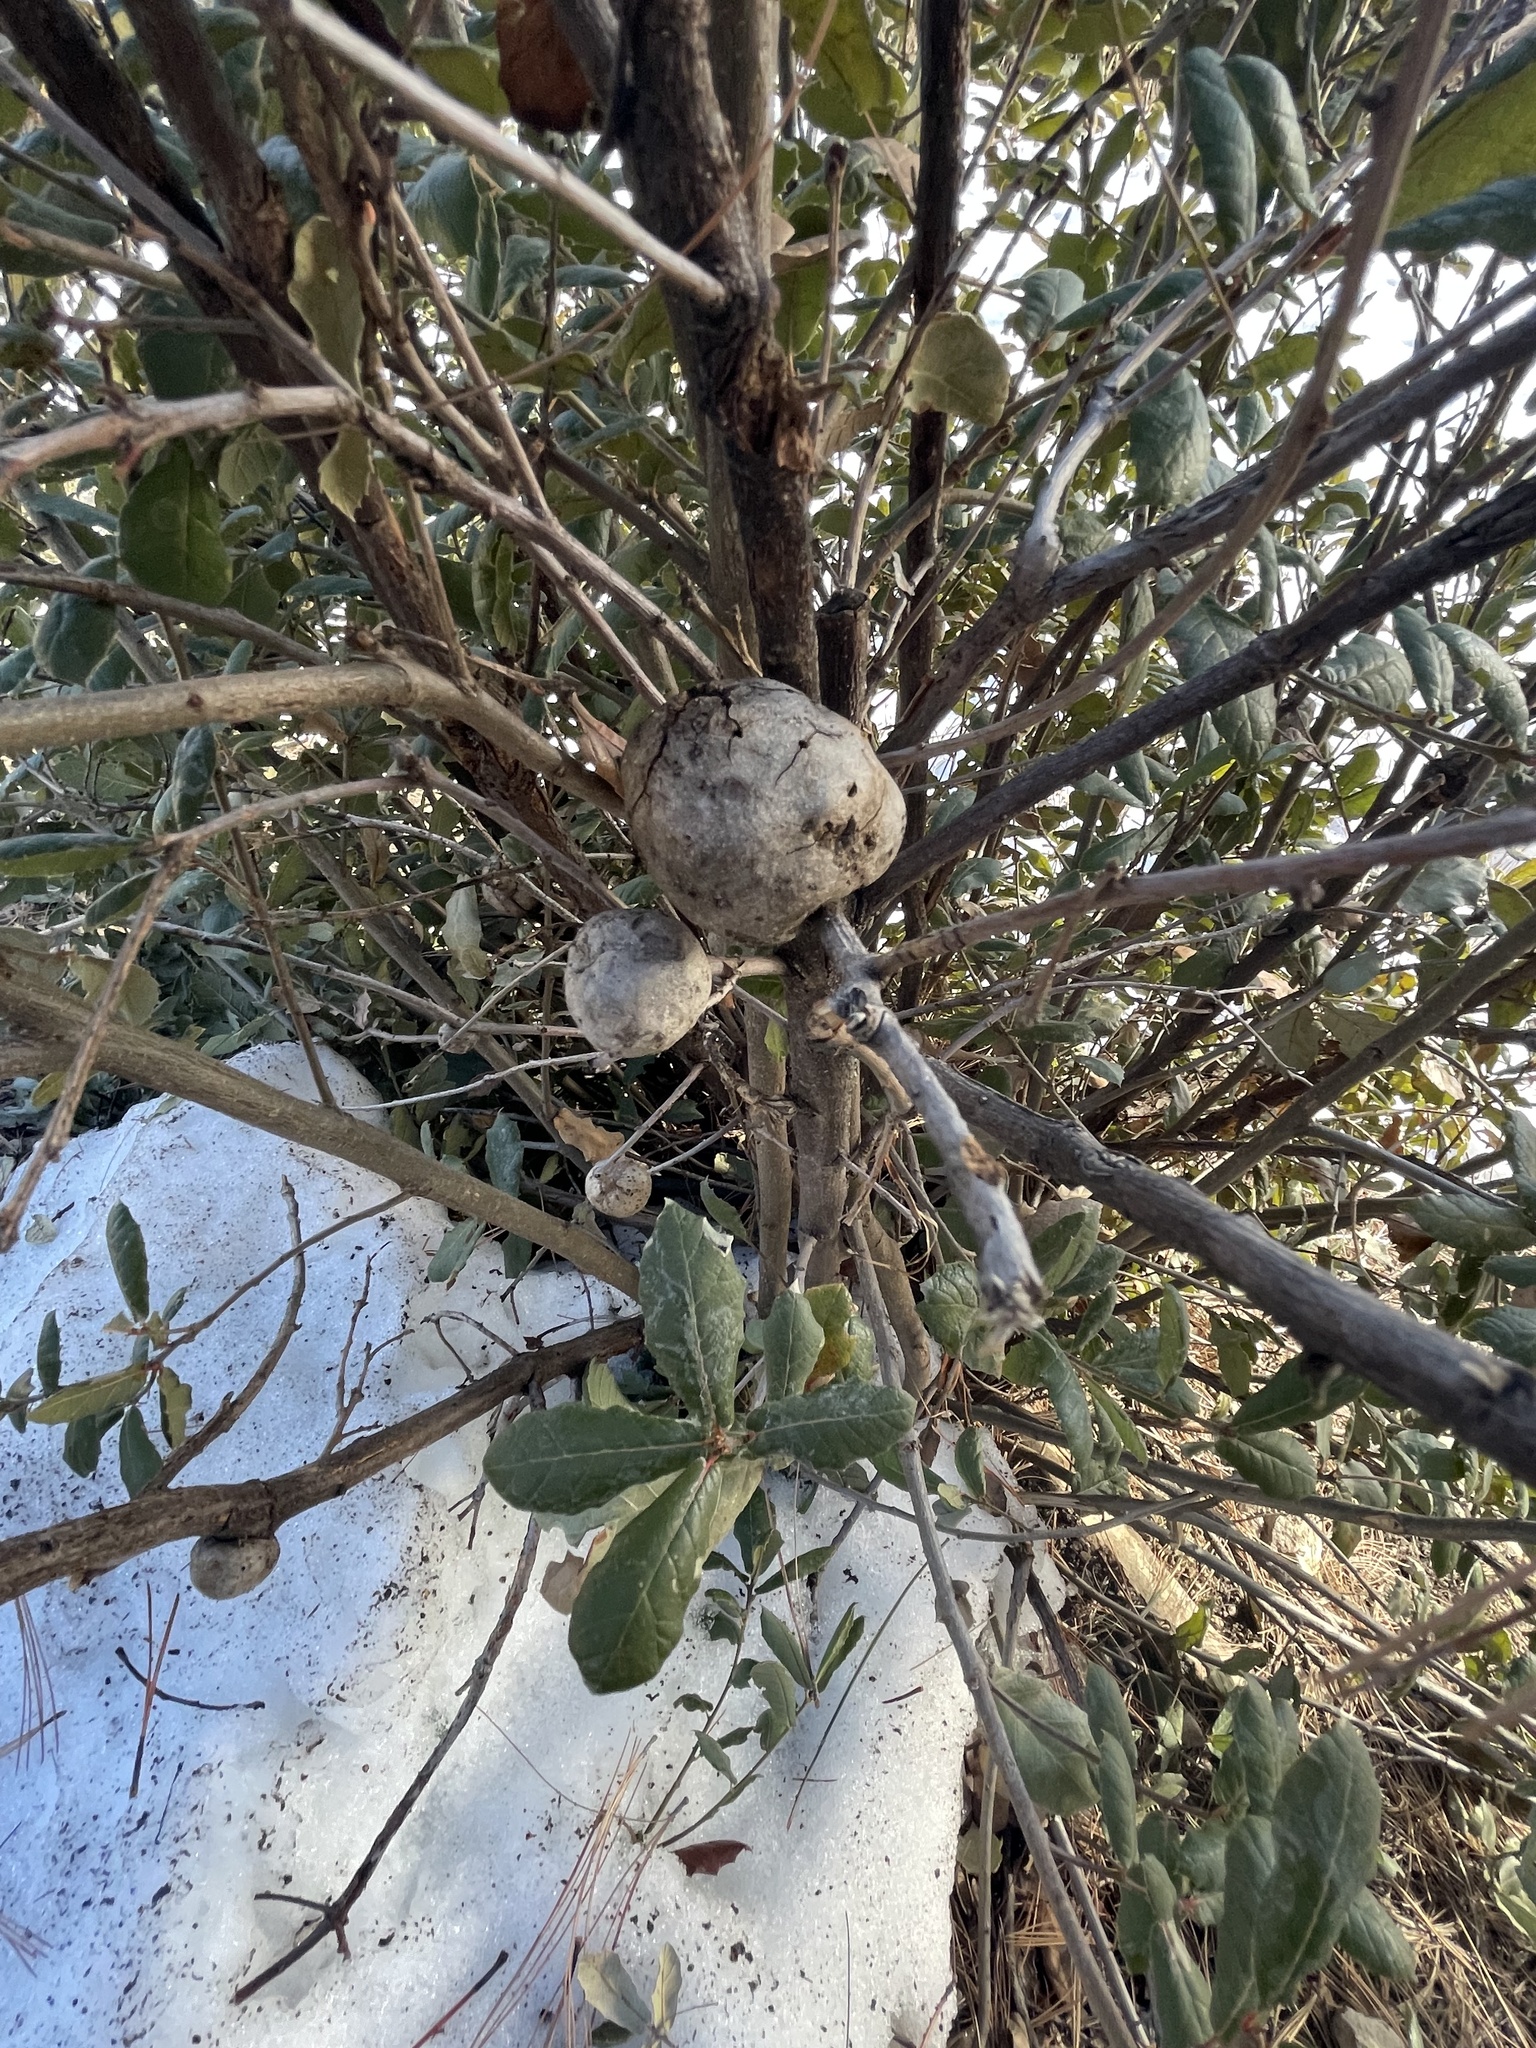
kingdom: Animalia
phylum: Arthropoda
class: Insecta
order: Hymenoptera
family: Cynipidae
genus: Andricus
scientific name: Andricus
